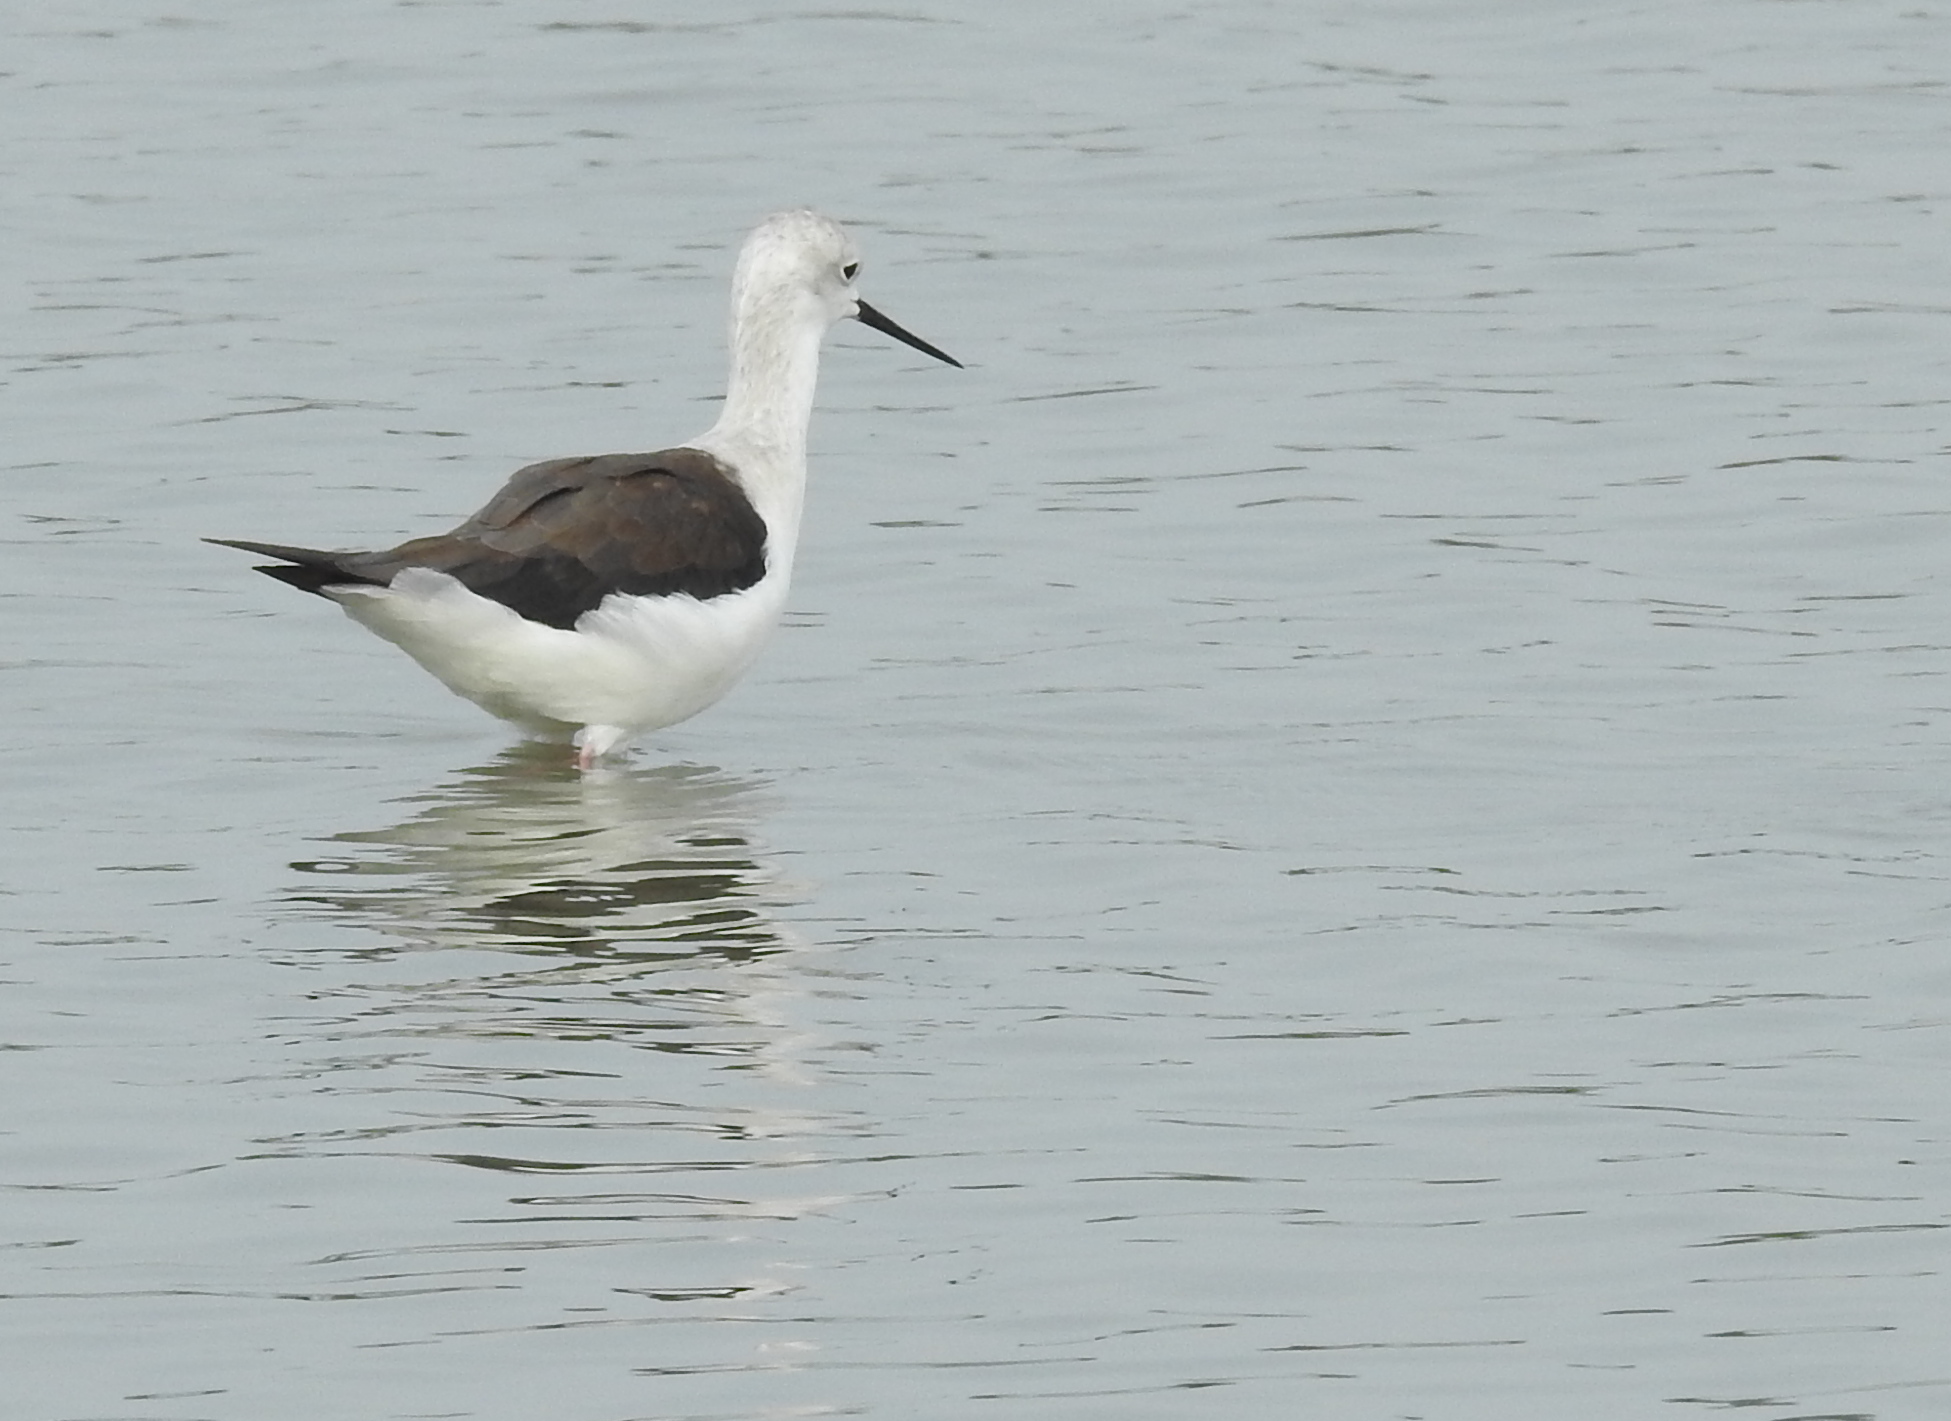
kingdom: Animalia
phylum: Chordata
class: Aves
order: Charadriiformes
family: Recurvirostridae
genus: Himantopus
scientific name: Himantopus himantopus
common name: Black-winged stilt
